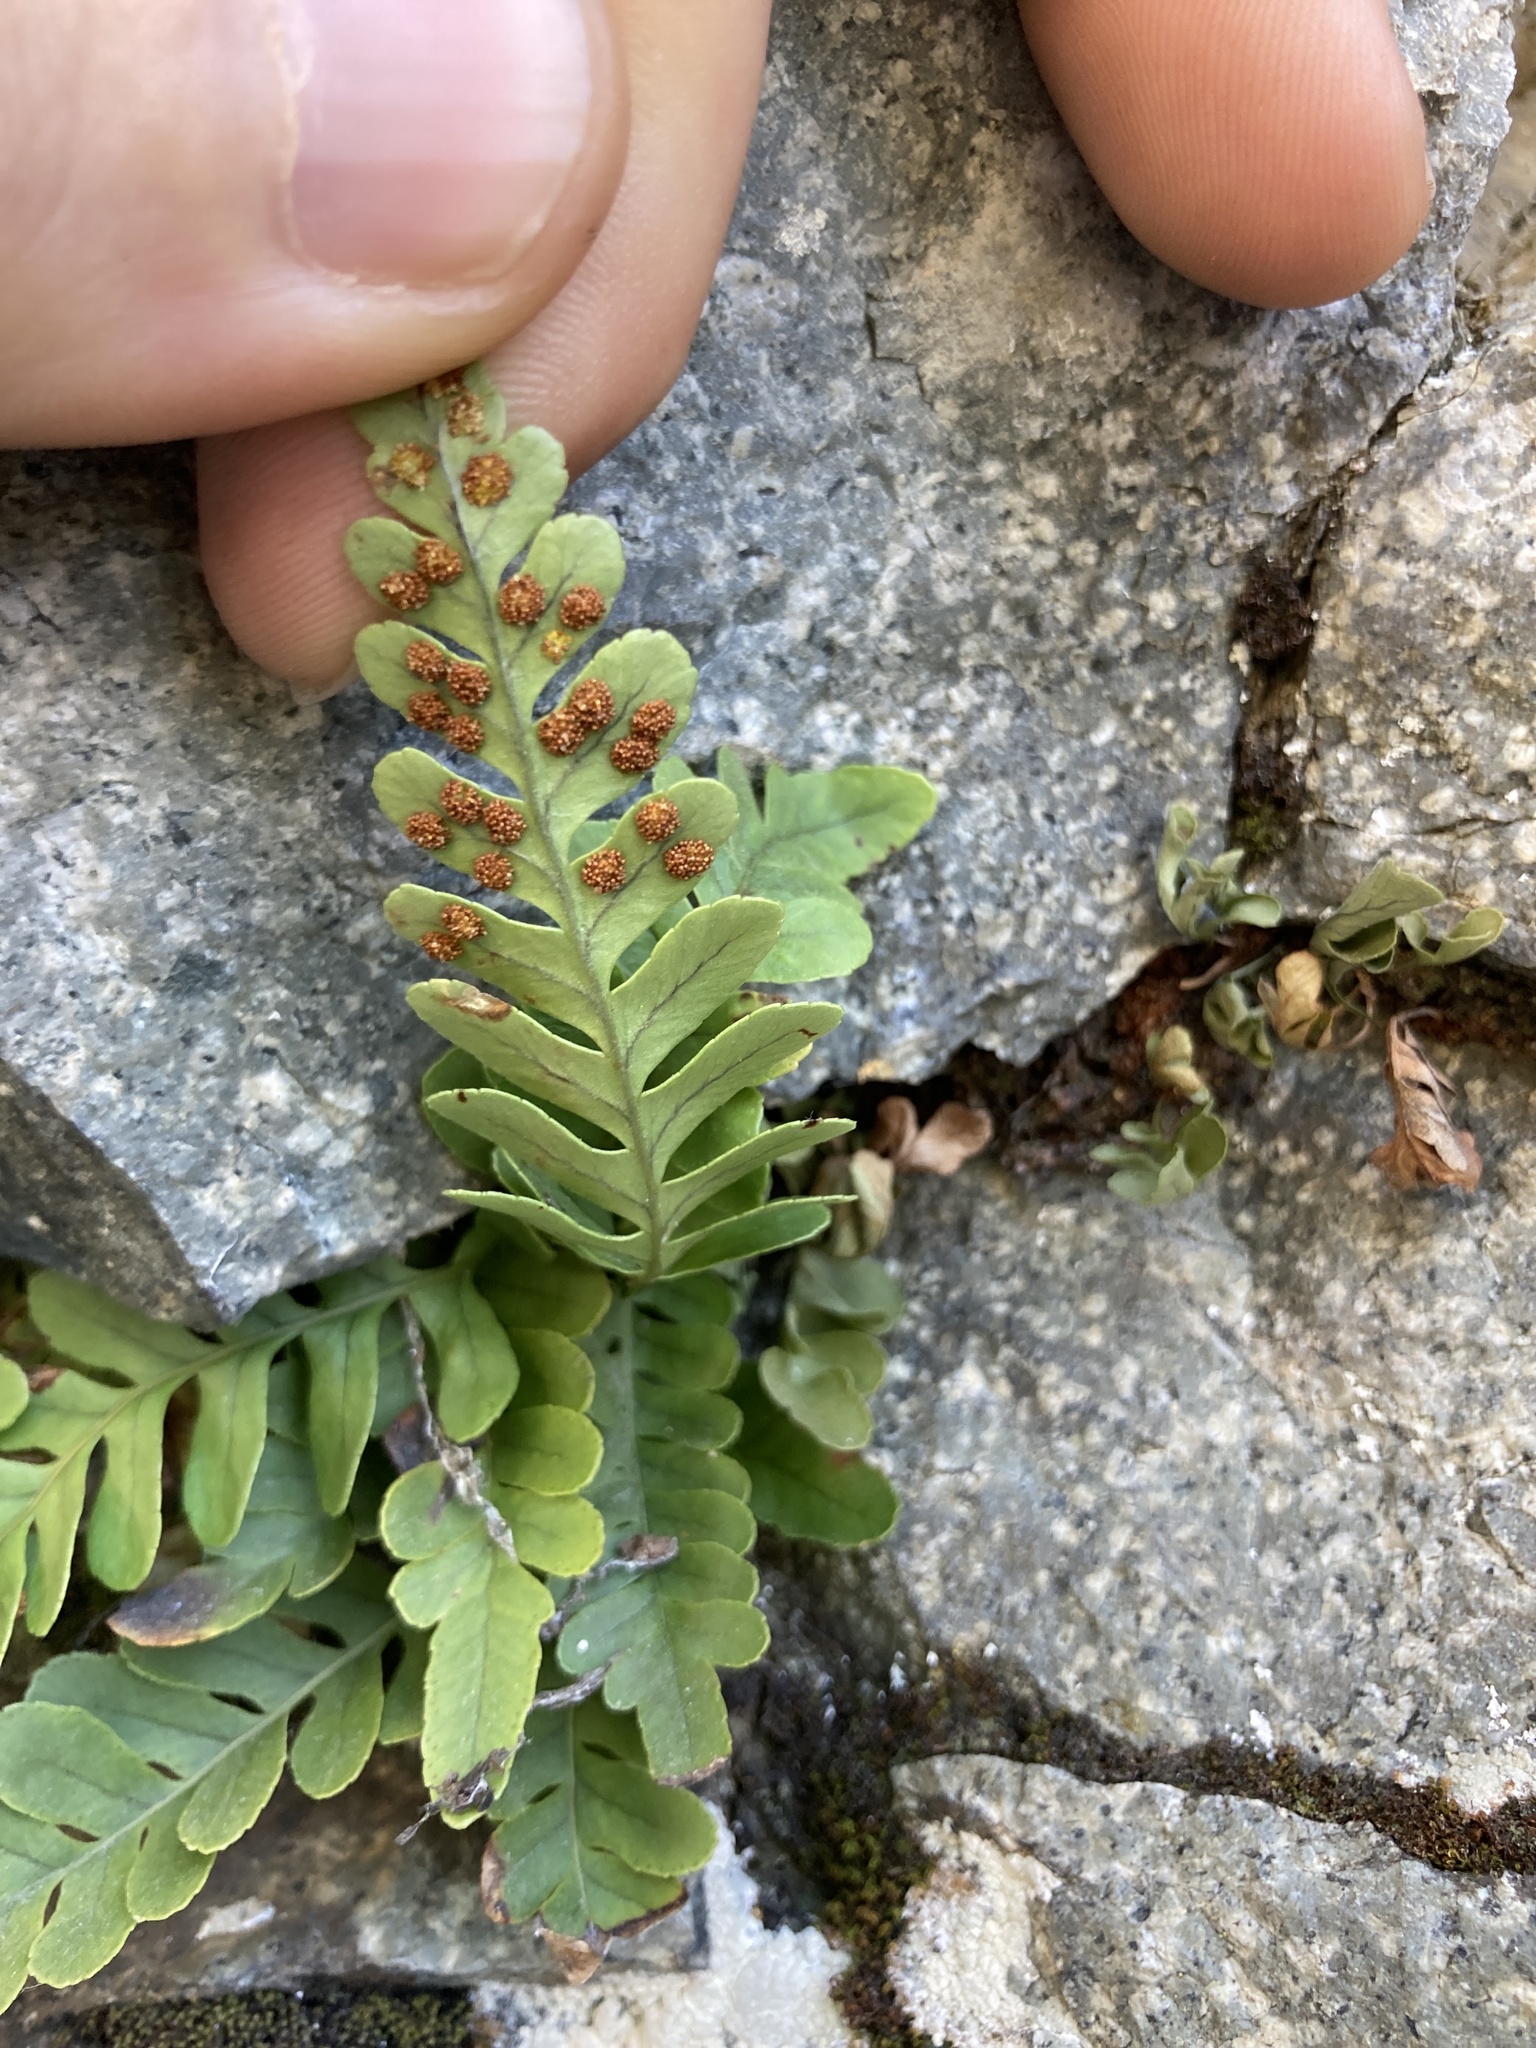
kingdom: Plantae
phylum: Tracheophyta
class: Polypodiopsida
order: Polypodiales
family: Polypodiaceae
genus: Polypodium
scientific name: Polypodium amorphum
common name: Pacific polypody
